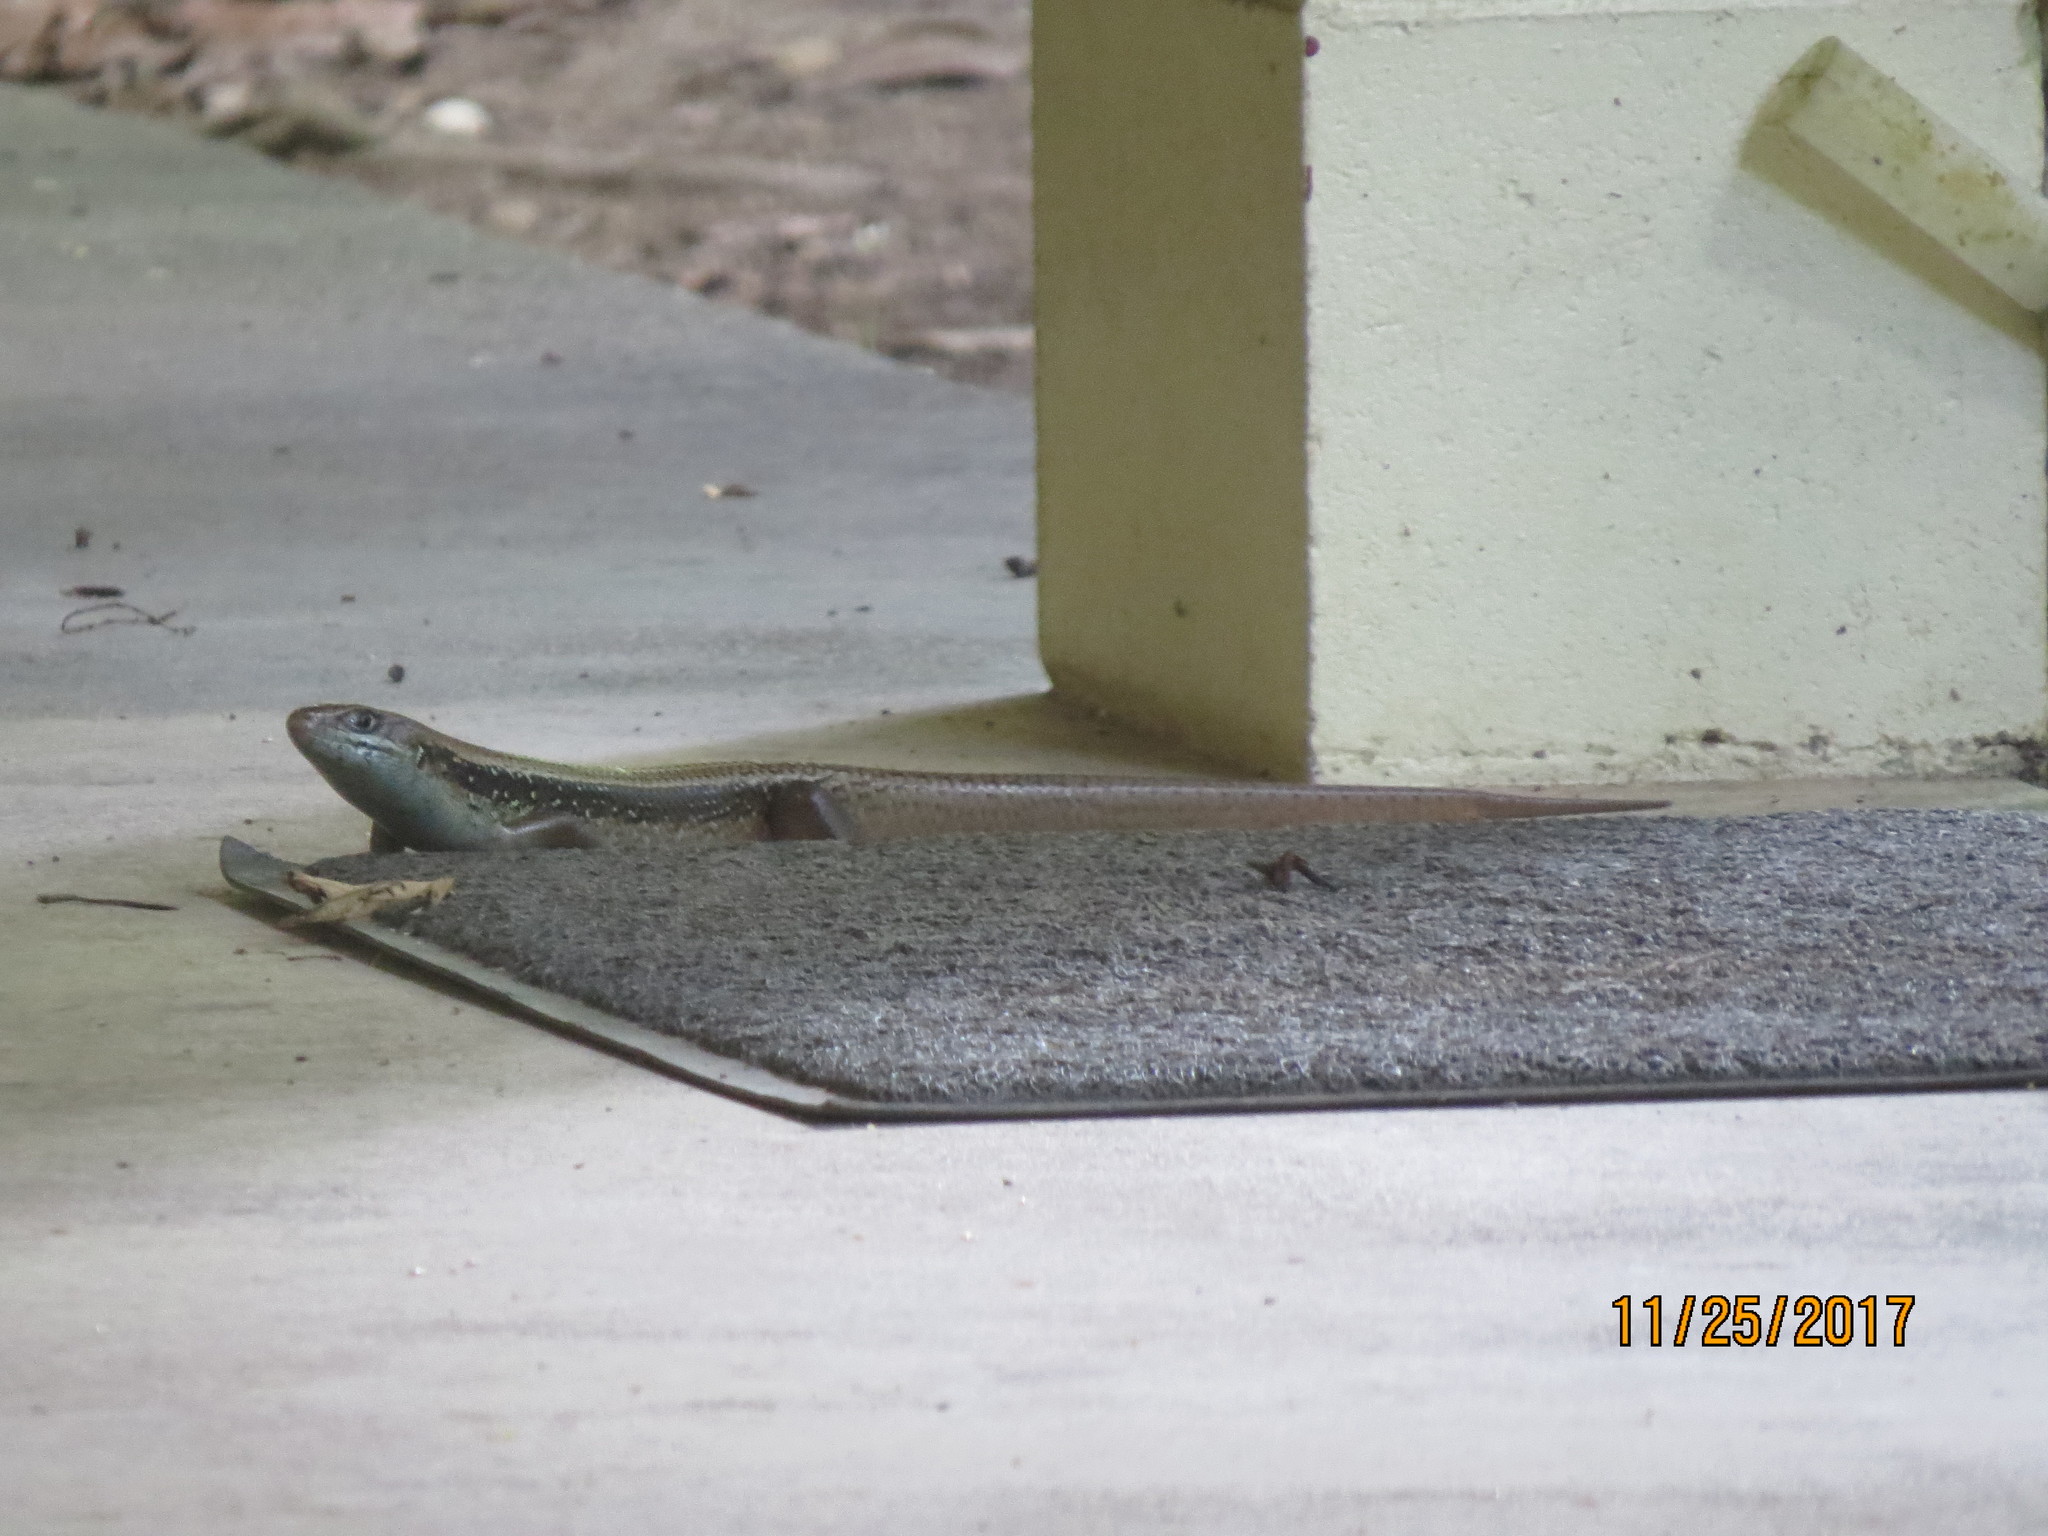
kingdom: Animalia
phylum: Chordata
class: Squamata
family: Scincidae
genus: Bellatorias
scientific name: Bellatorias frerei
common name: Major skink
